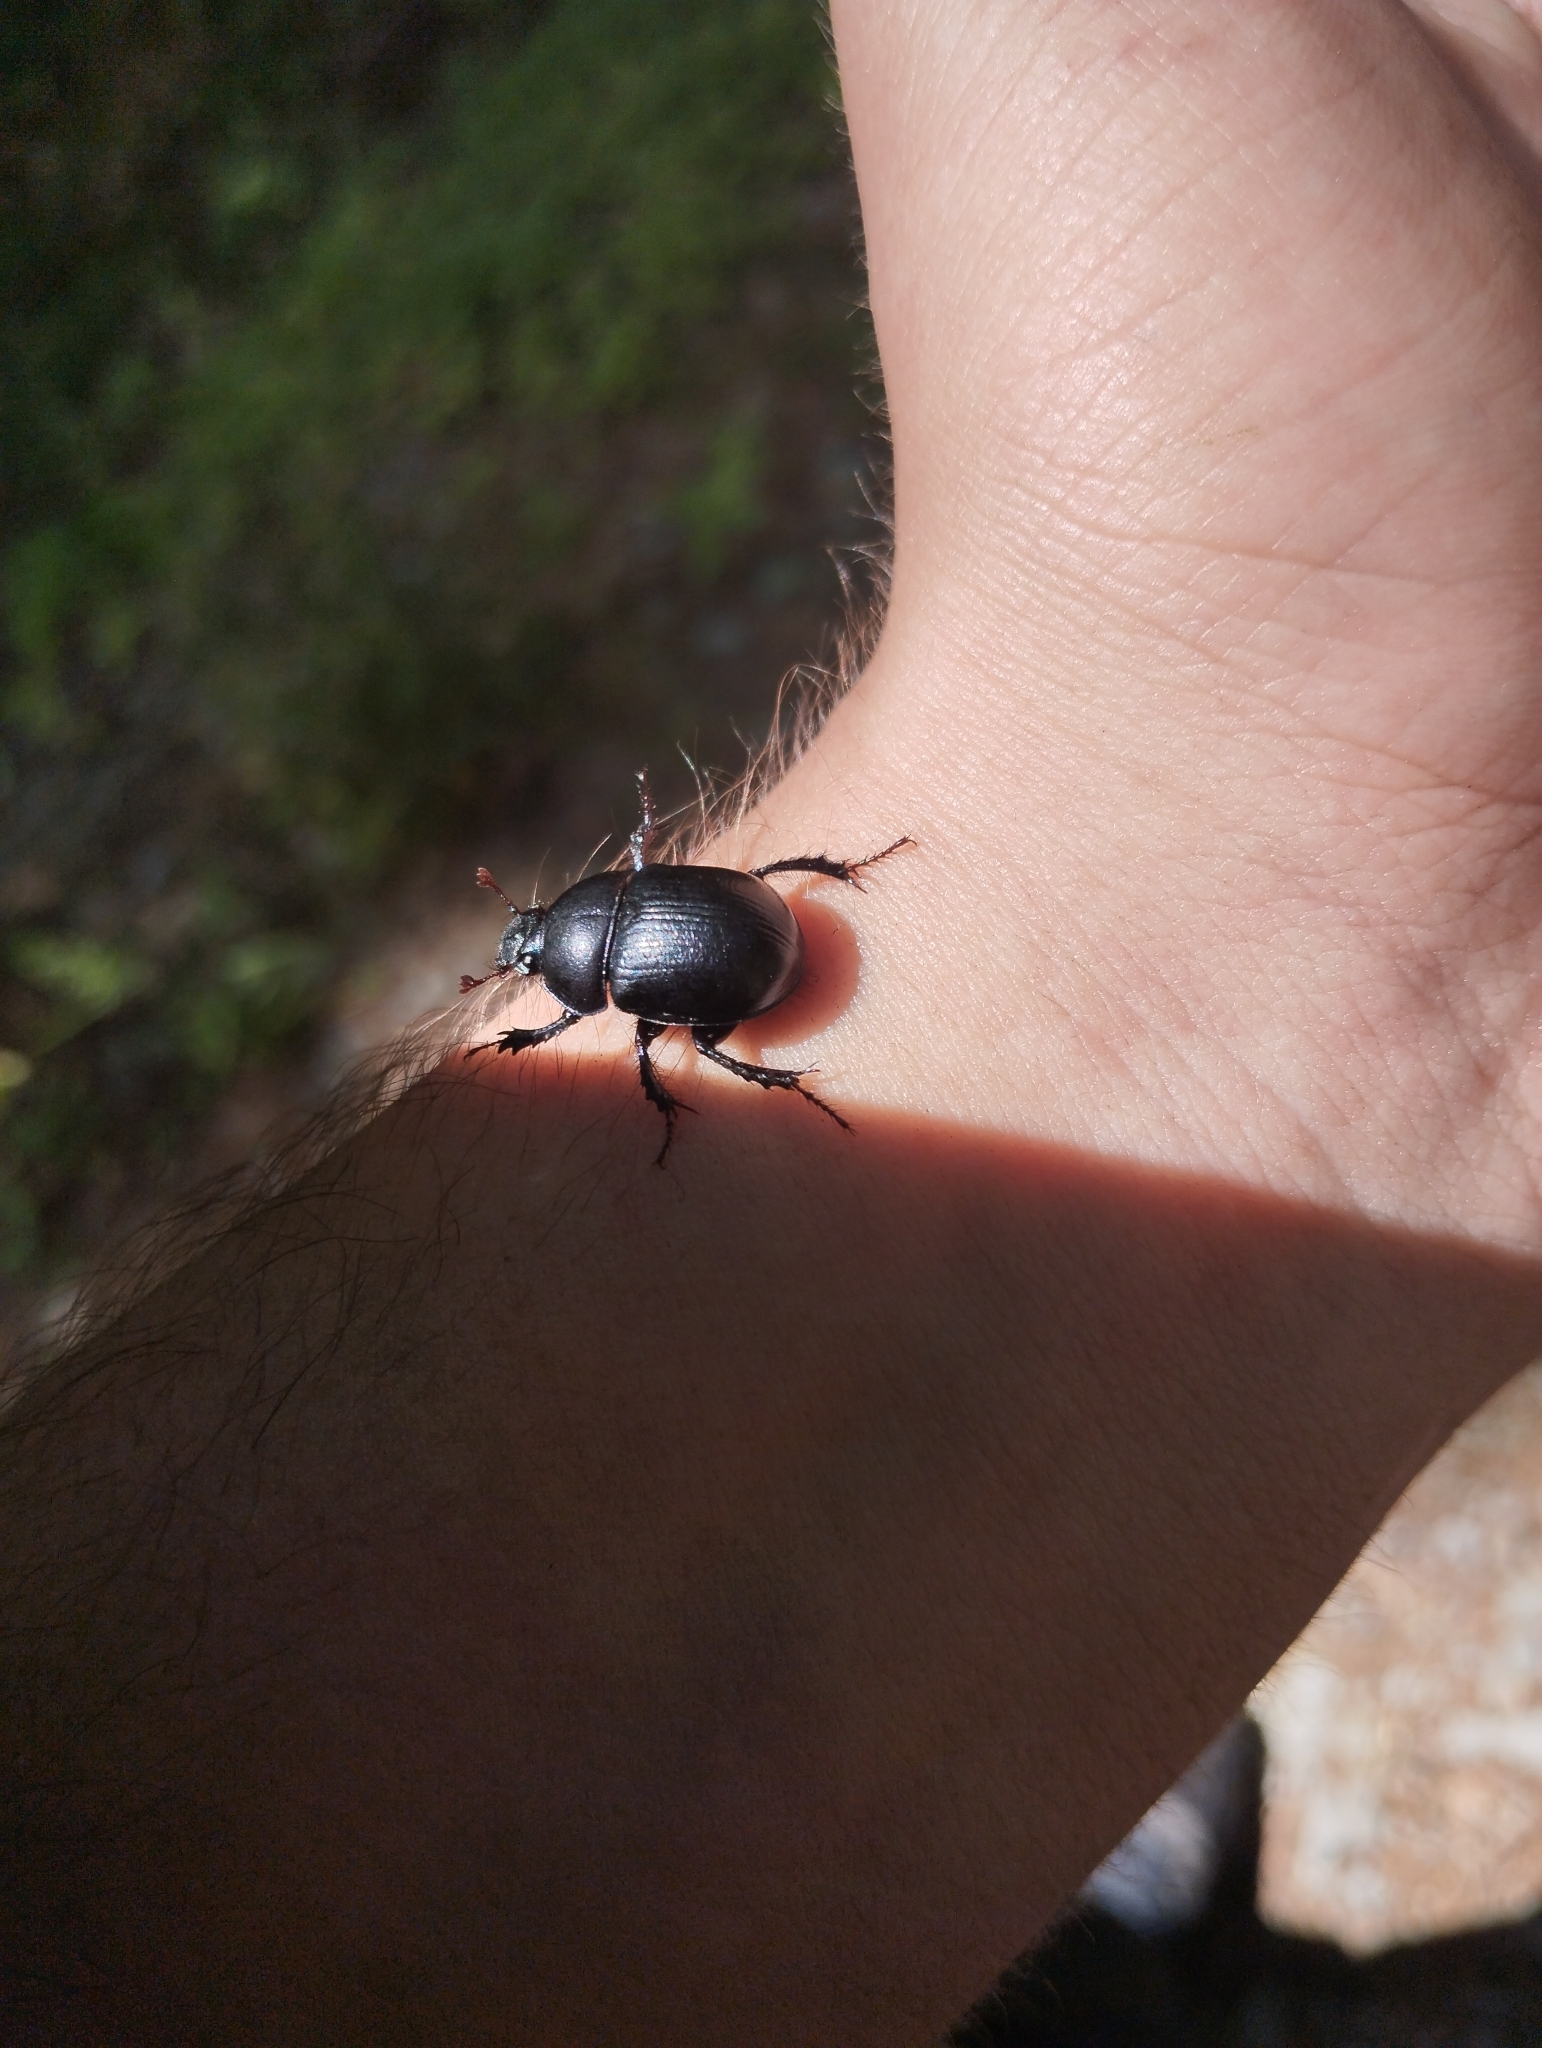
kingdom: Animalia
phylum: Arthropoda
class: Insecta
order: Coleoptera
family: Geotrupidae
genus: Anoplotrupes
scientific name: Anoplotrupes stercorosus
